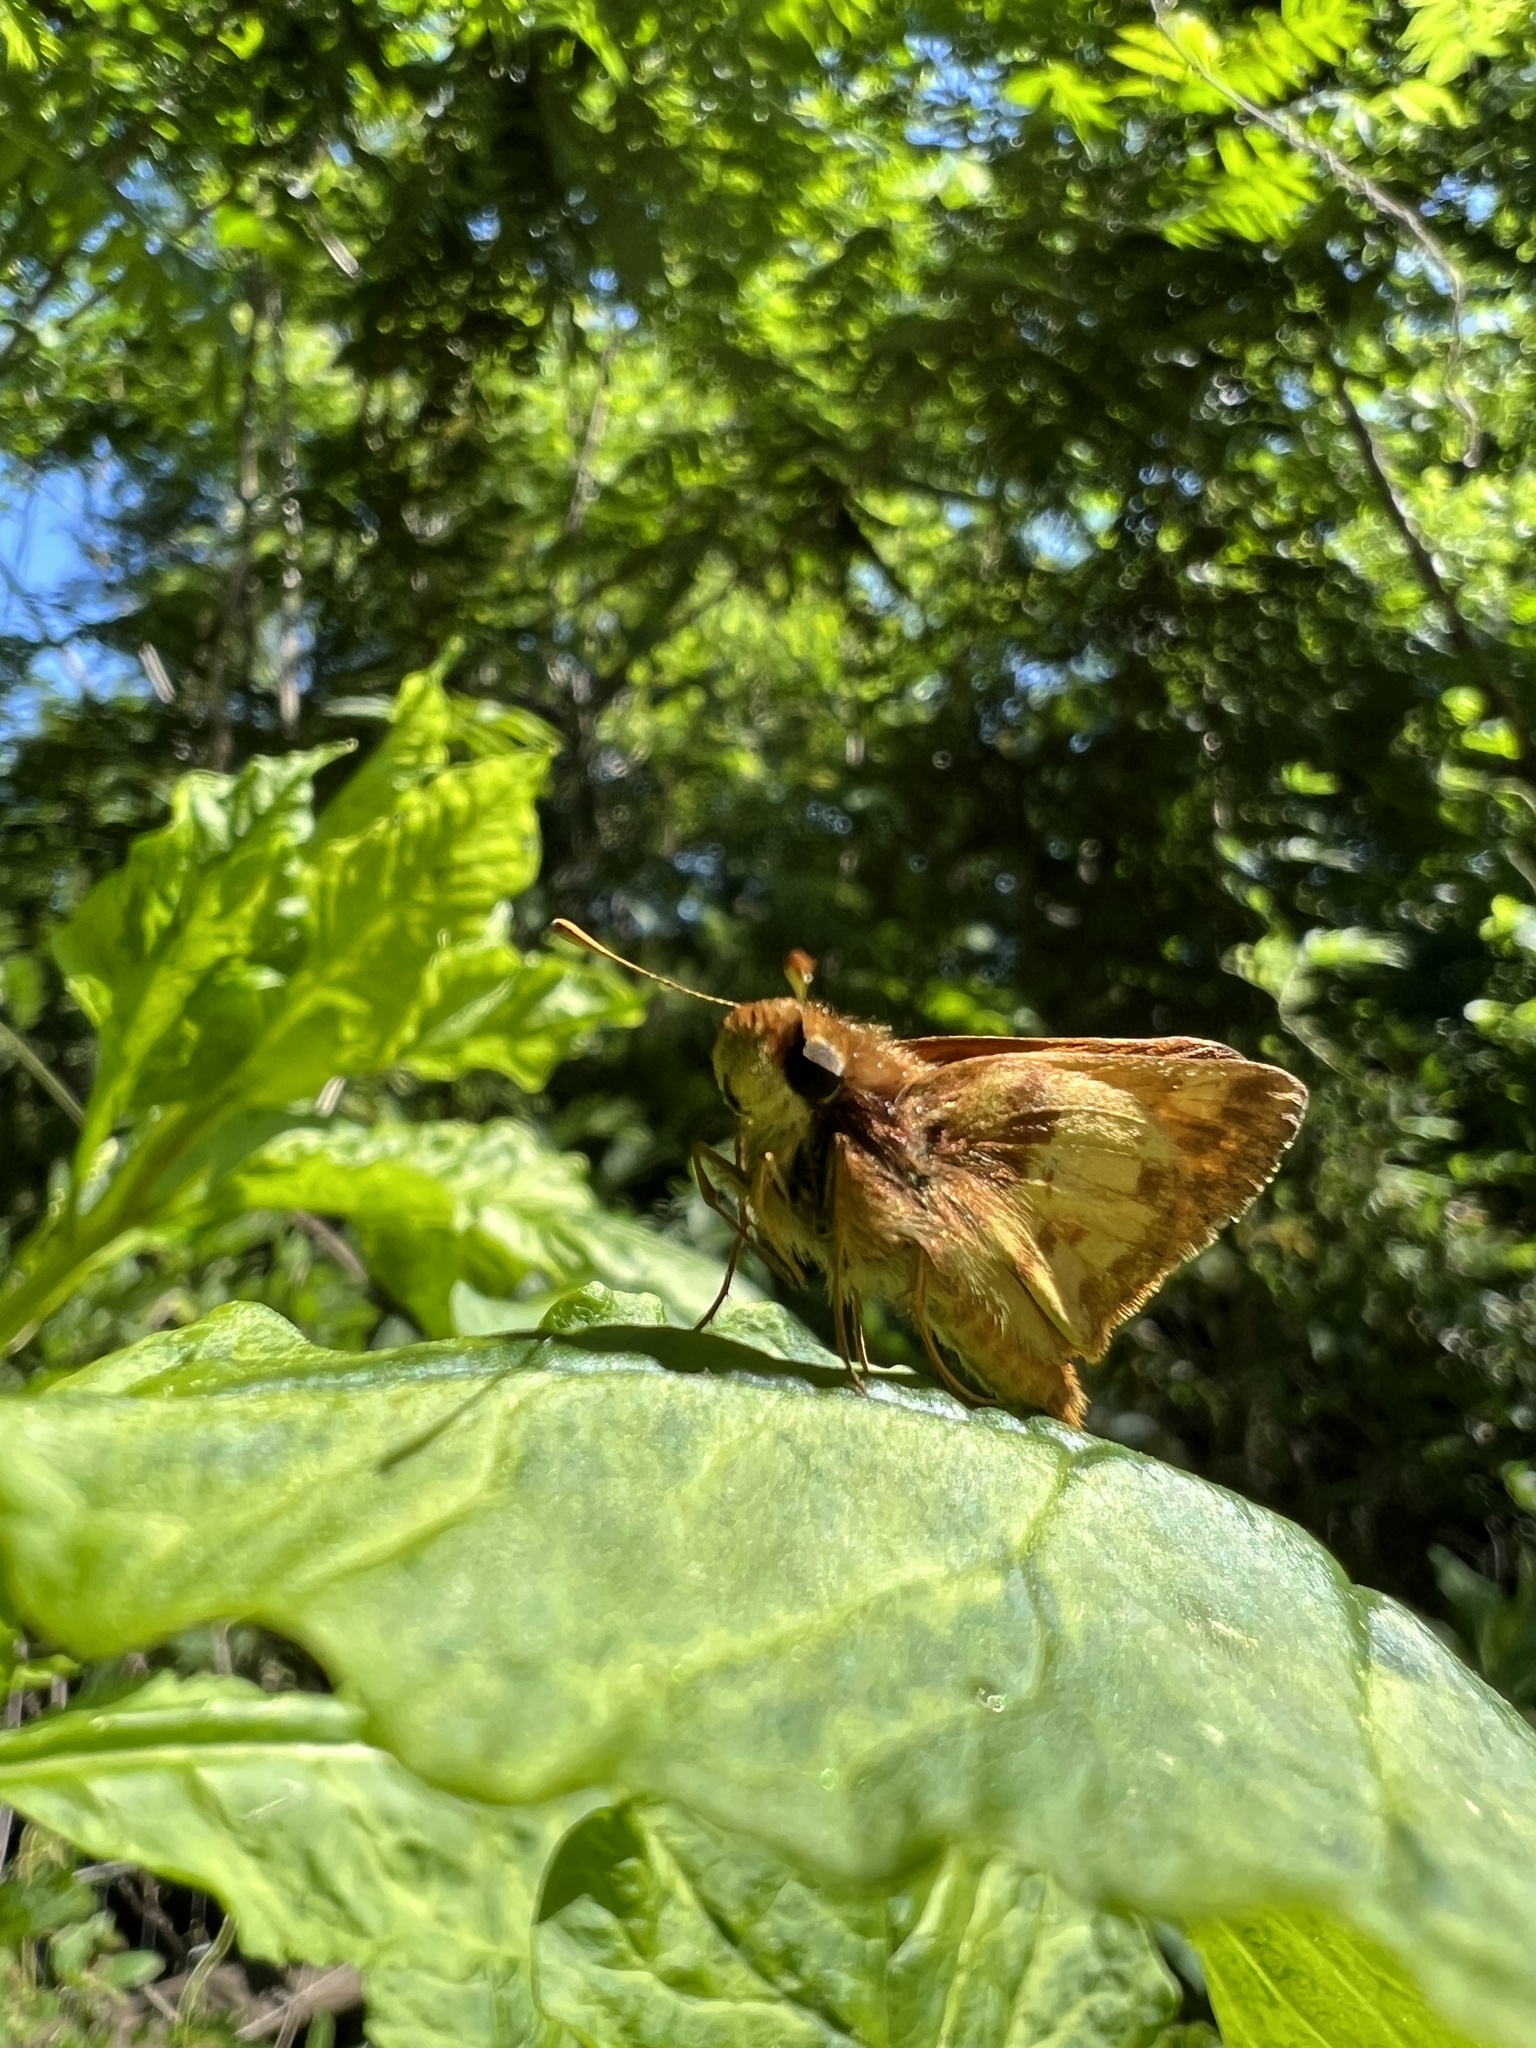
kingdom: Animalia
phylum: Arthropoda
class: Insecta
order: Lepidoptera
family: Hesperiidae
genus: Lon
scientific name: Lon zabulon
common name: Zabulon skipper
